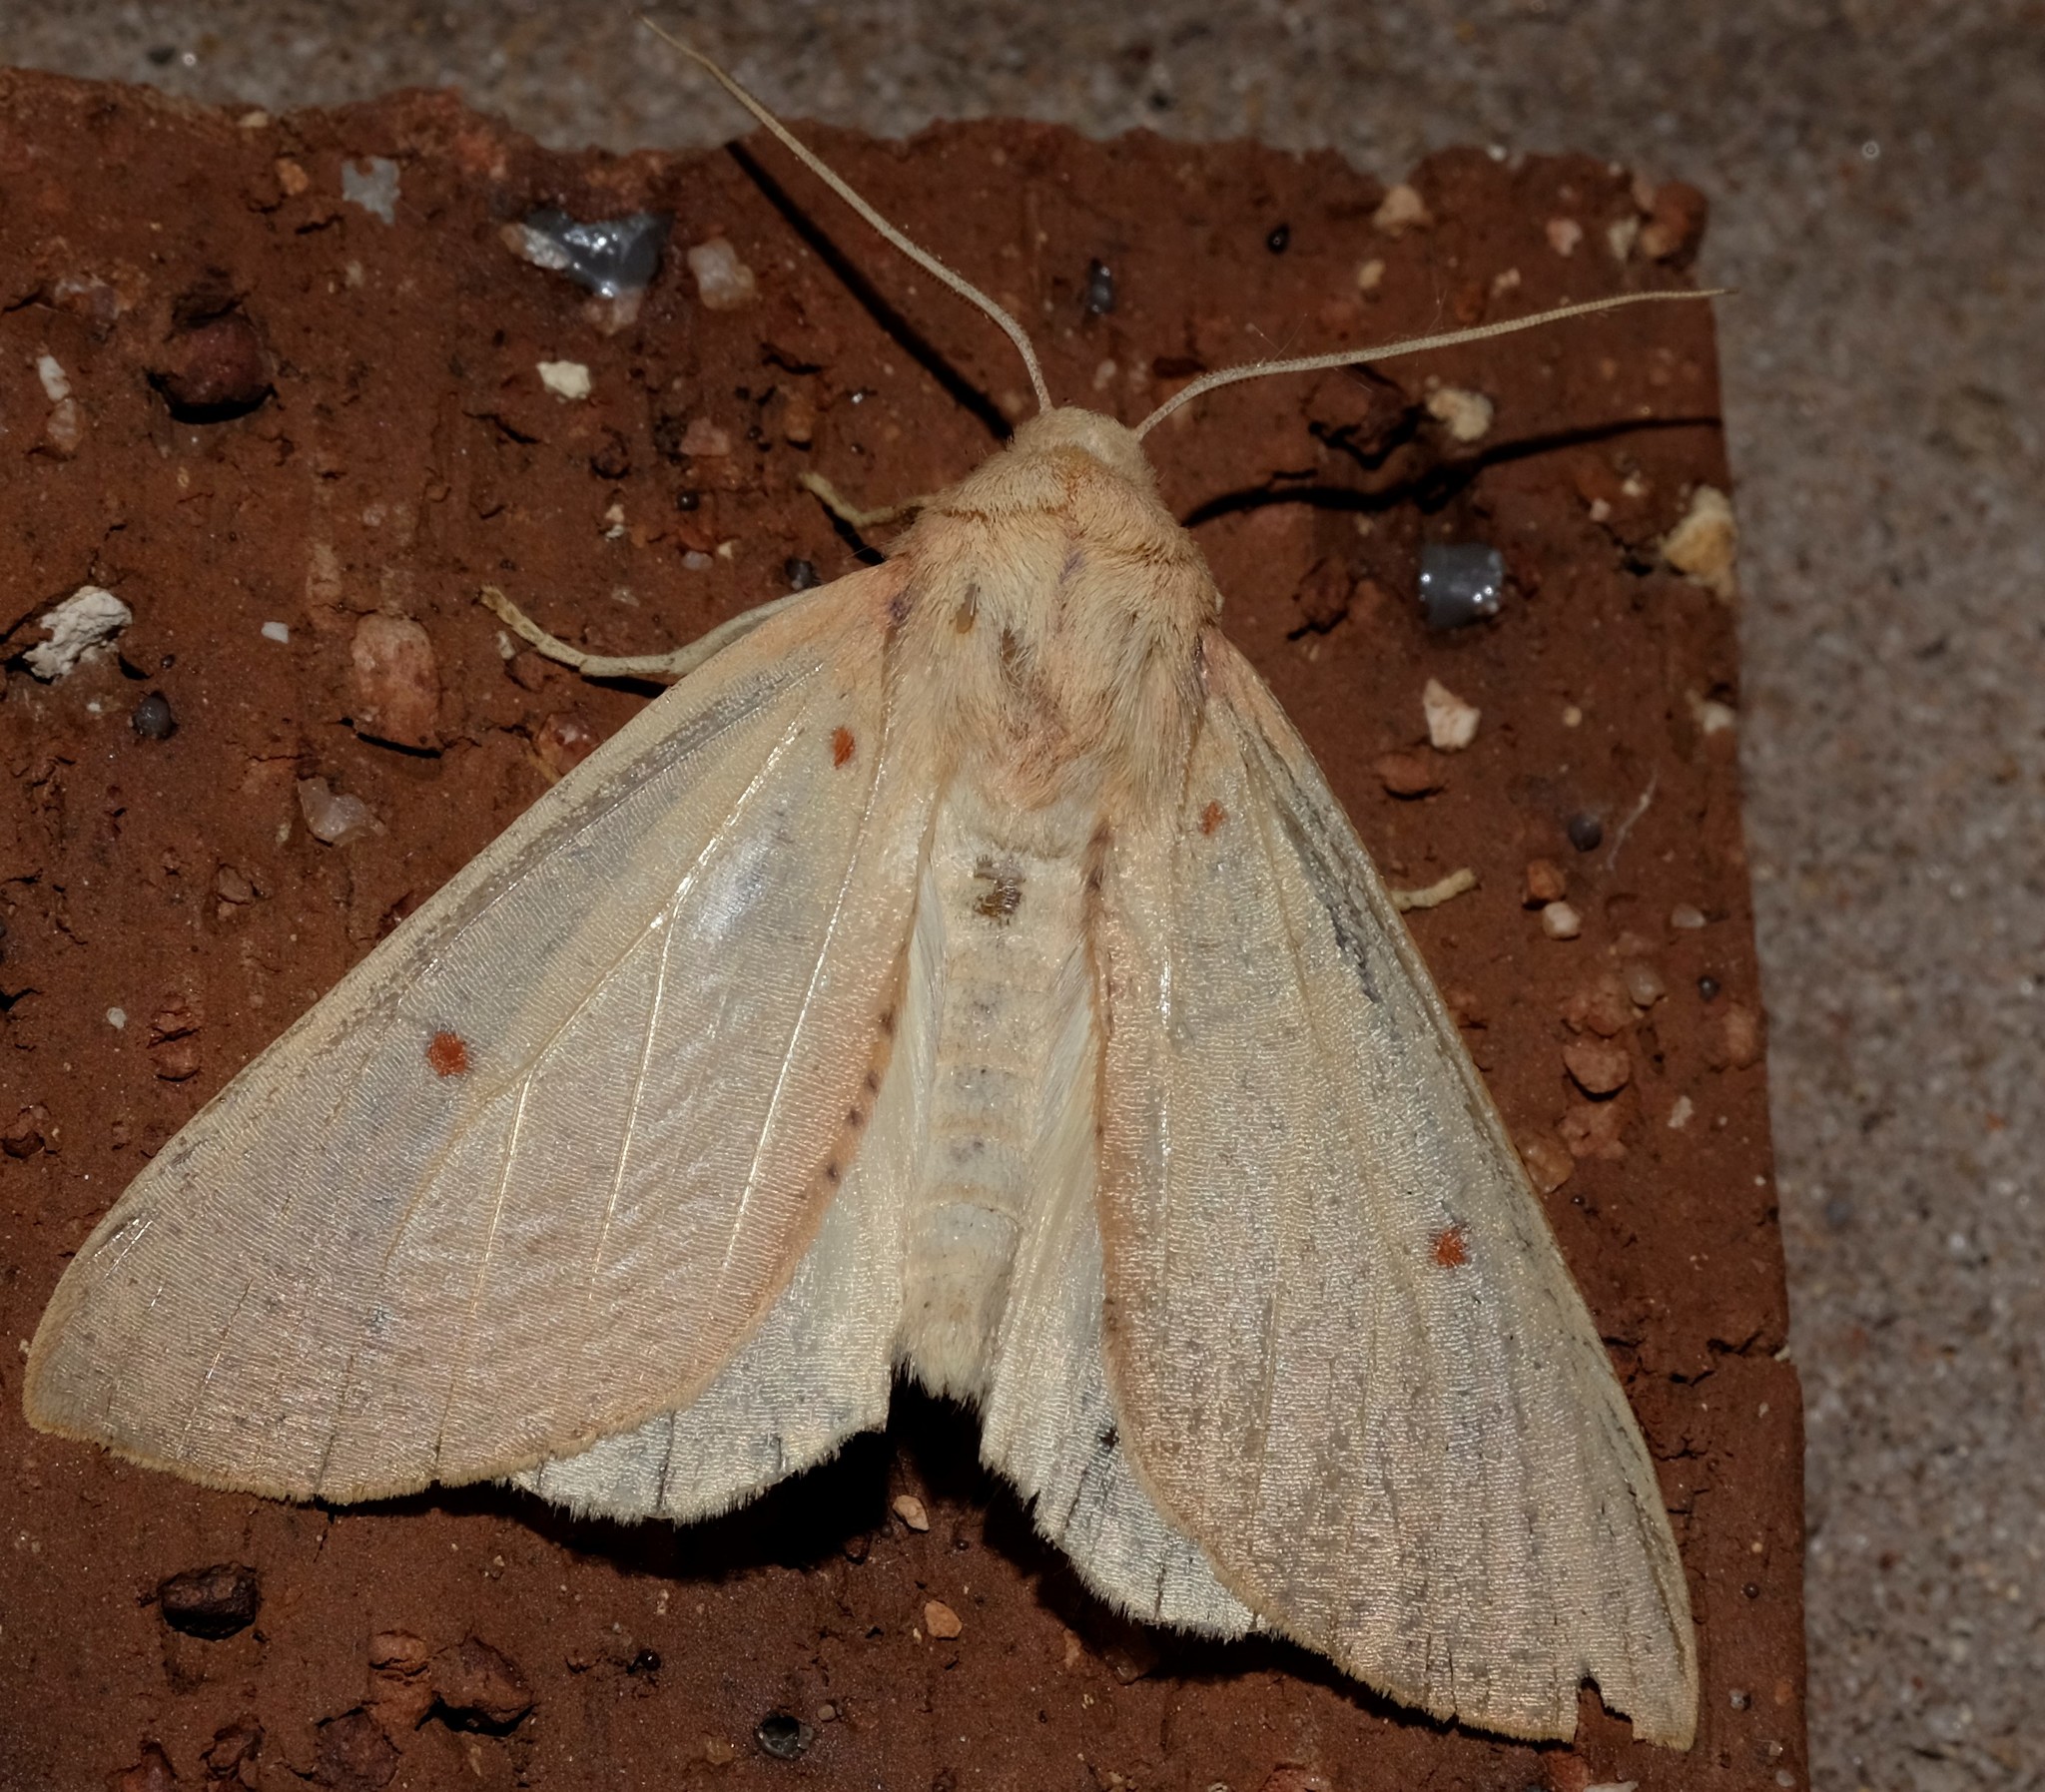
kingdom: Animalia
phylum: Arthropoda
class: Insecta
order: Lepidoptera
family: Geometridae
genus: Plesanemma
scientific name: Plesanemma fucata
